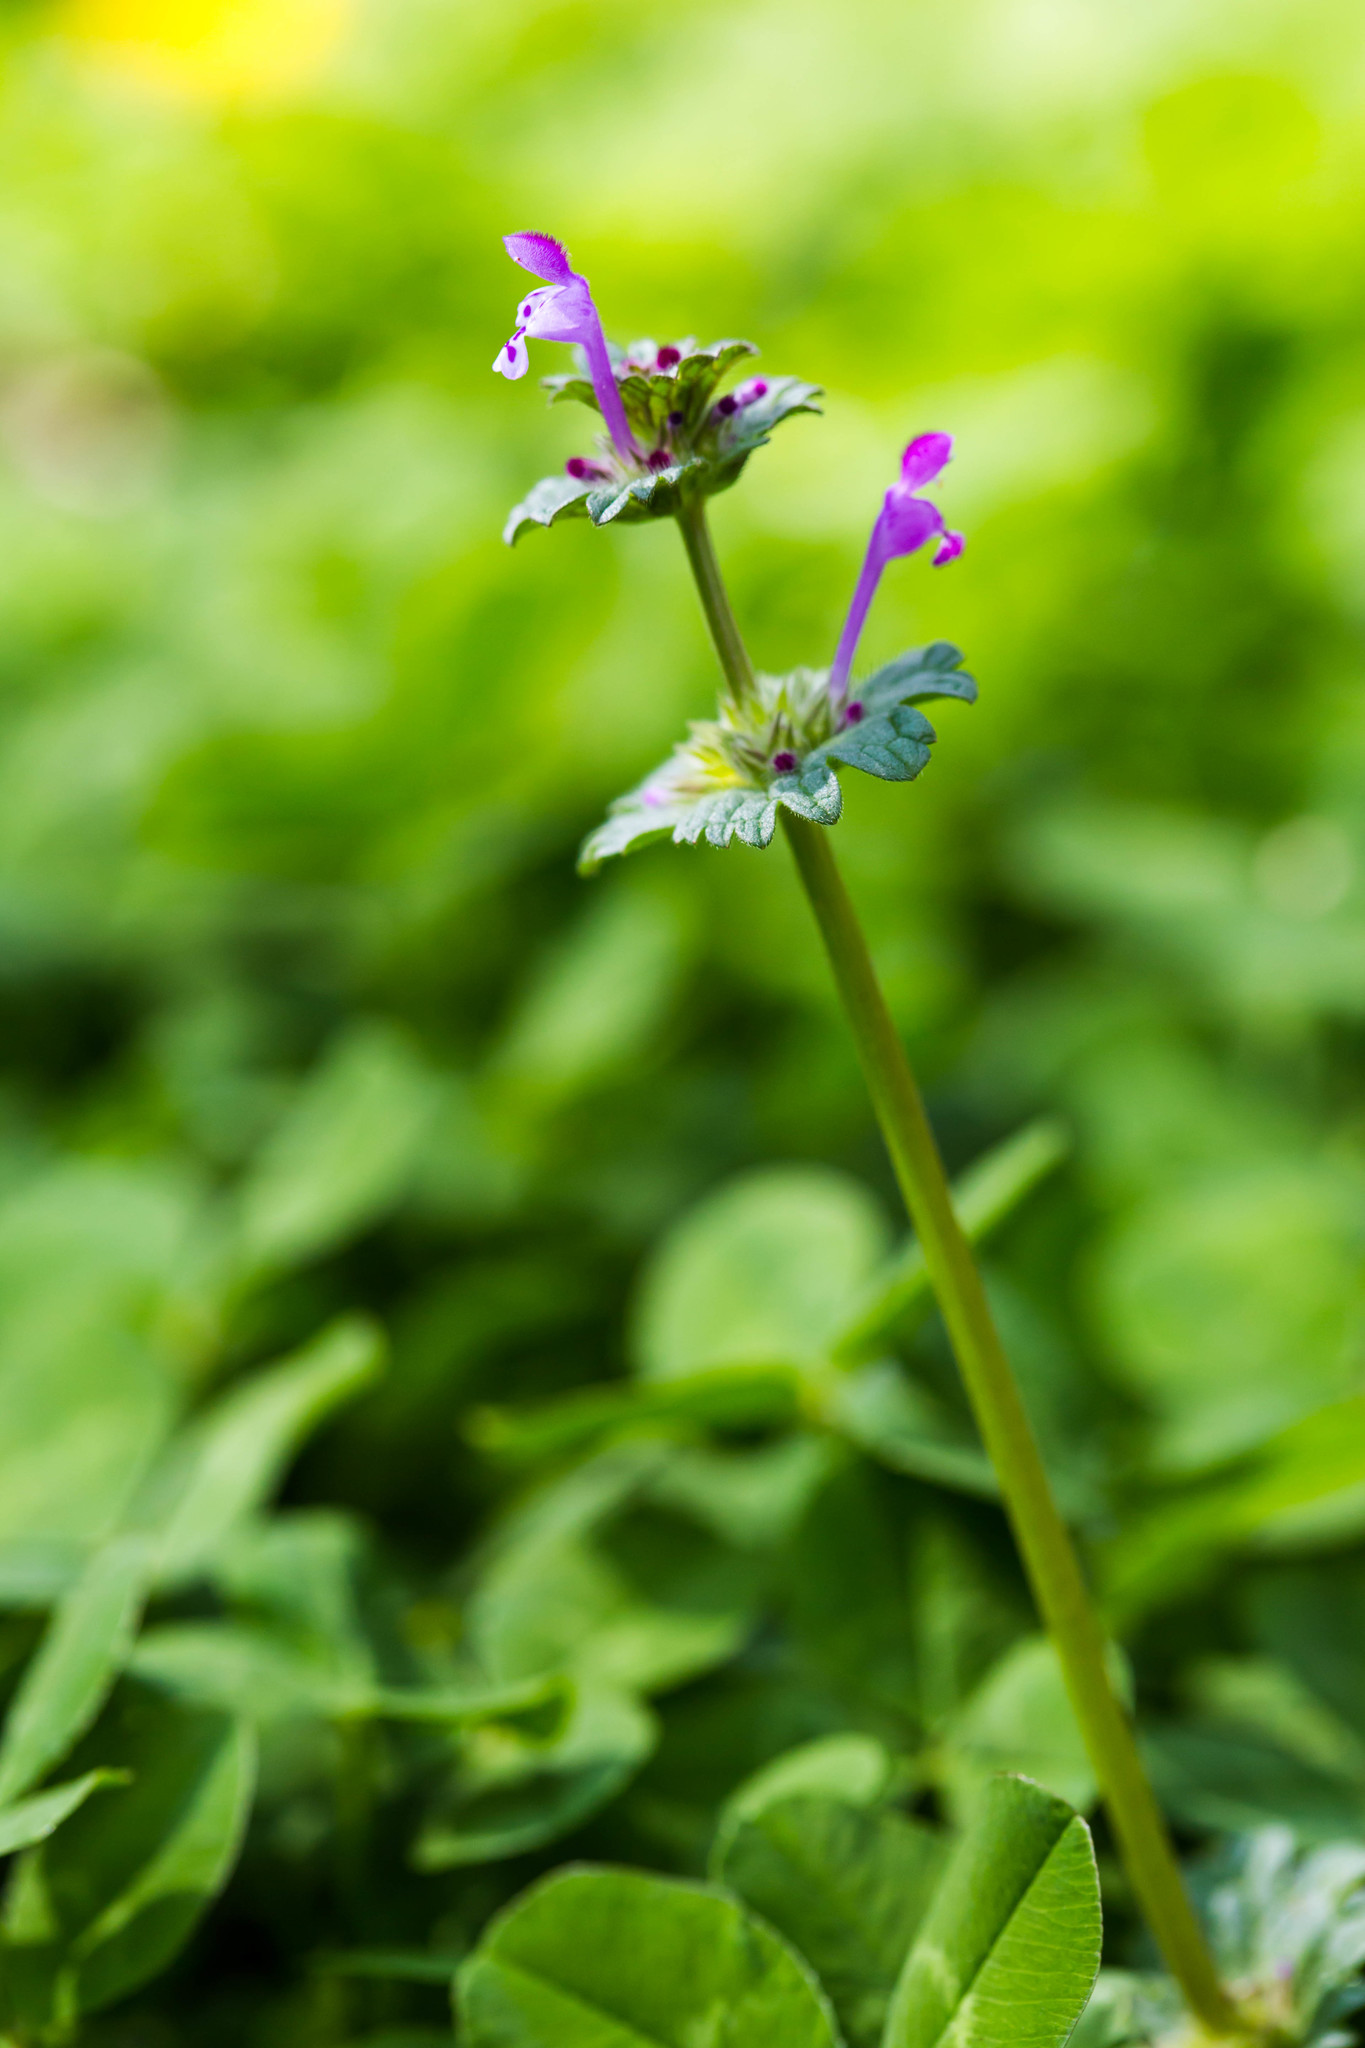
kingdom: Plantae
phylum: Tracheophyta
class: Magnoliopsida
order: Lamiales
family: Lamiaceae
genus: Lamium
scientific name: Lamium amplexicaule
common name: Henbit dead-nettle
